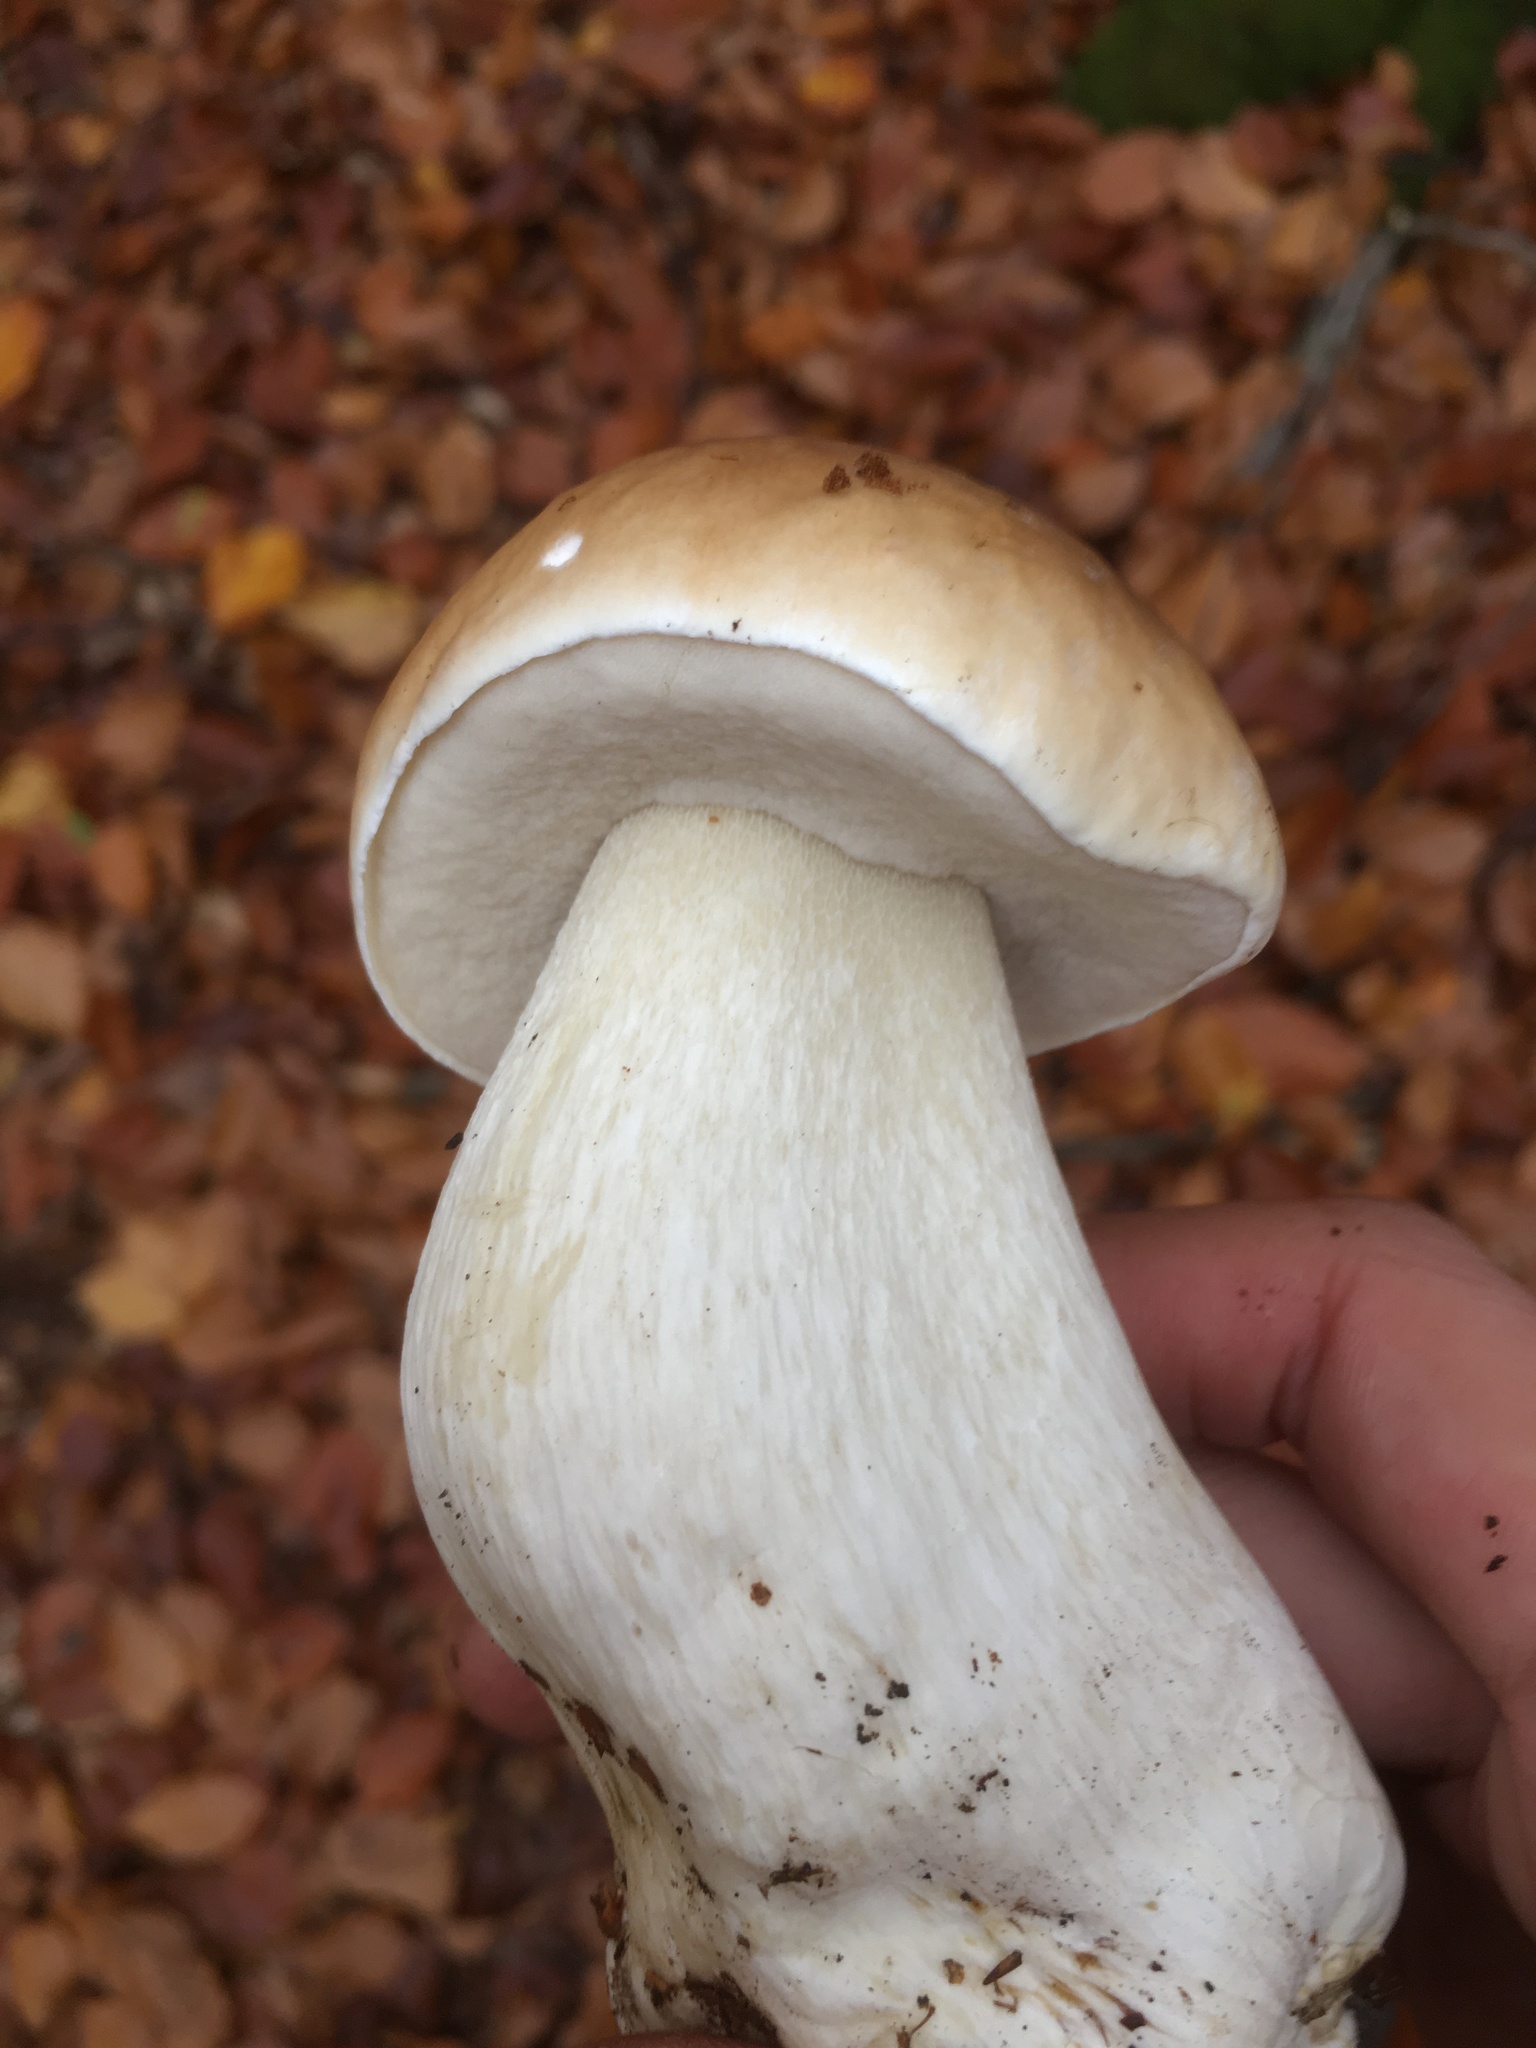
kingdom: Fungi
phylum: Basidiomycota
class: Agaricomycetes
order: Boletales
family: Boletaceae
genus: Boletus
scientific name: Boletus edulis
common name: Cep
